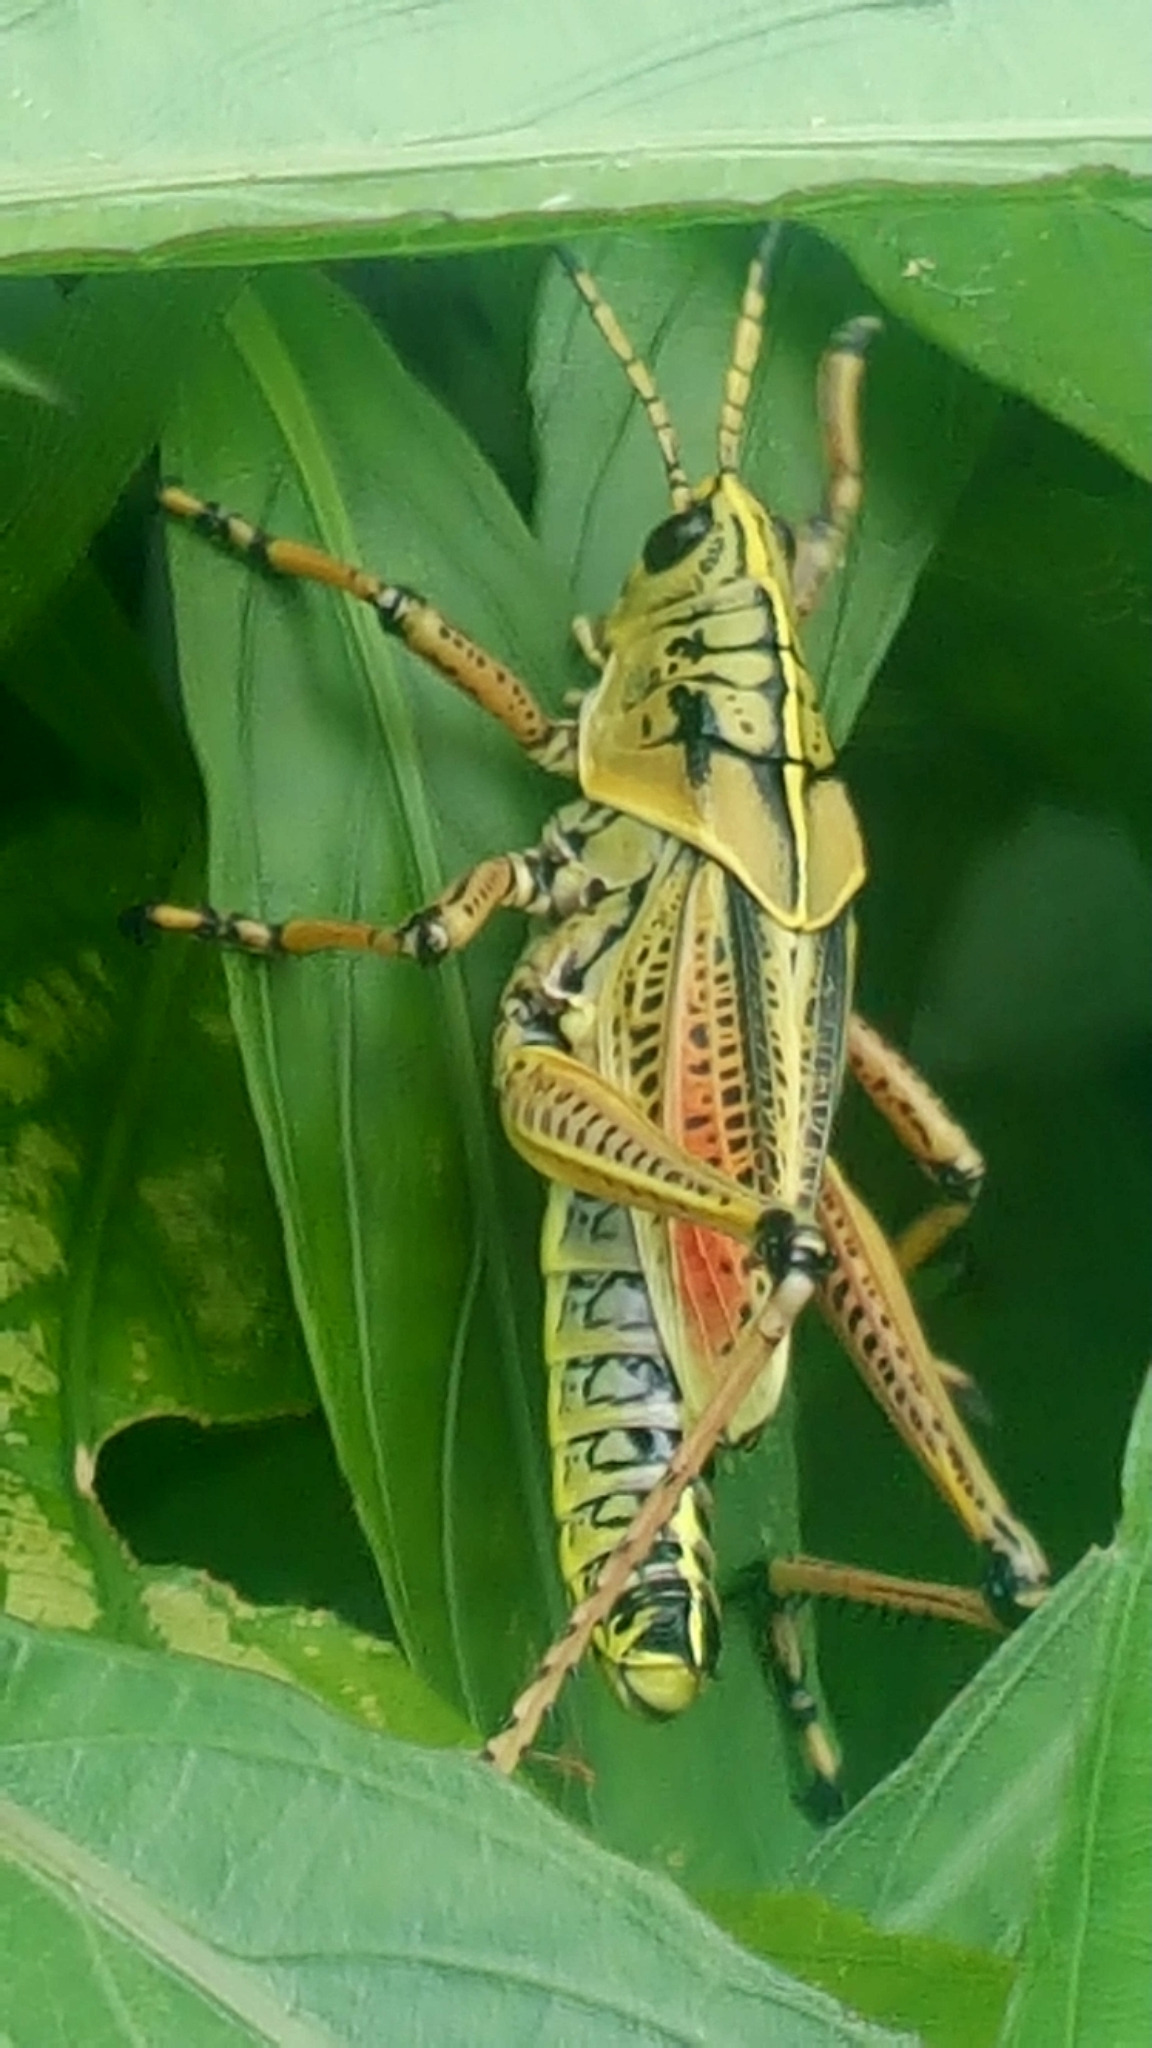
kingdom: Animalia
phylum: Arthropoda
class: Insecta
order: Orthoptera
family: Romaleidae
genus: Romalea
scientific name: Romalea microptera
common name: Eastern lubber grasshopper
